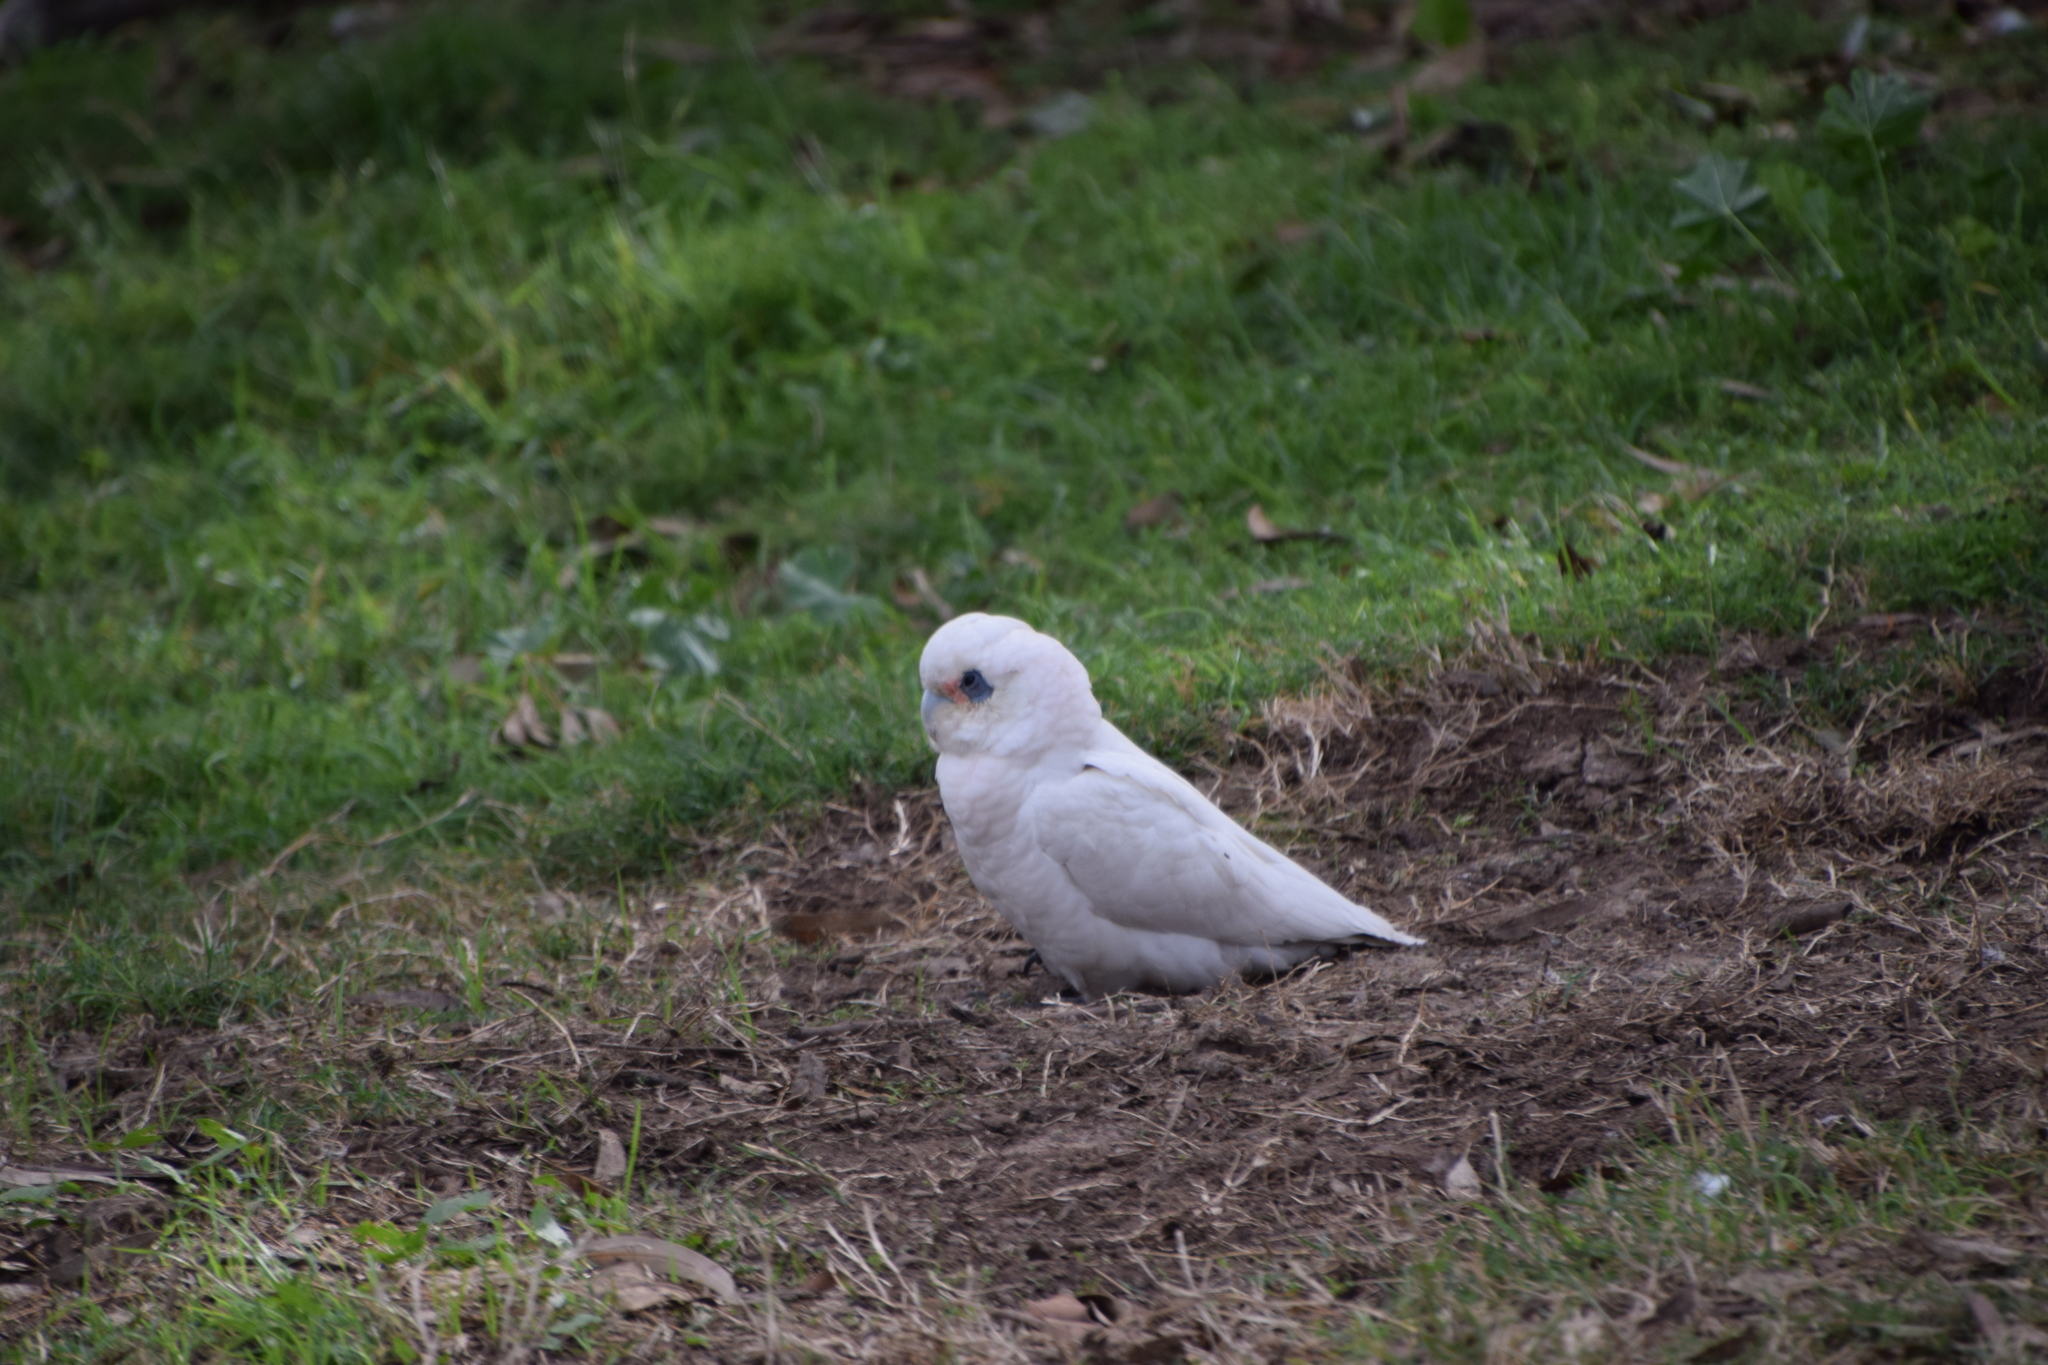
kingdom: Animalia
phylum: Chordata
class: Aves
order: Psittaciformes
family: Psittacidae
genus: Cacatua
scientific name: Cacatua sanguinea
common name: Little corella
